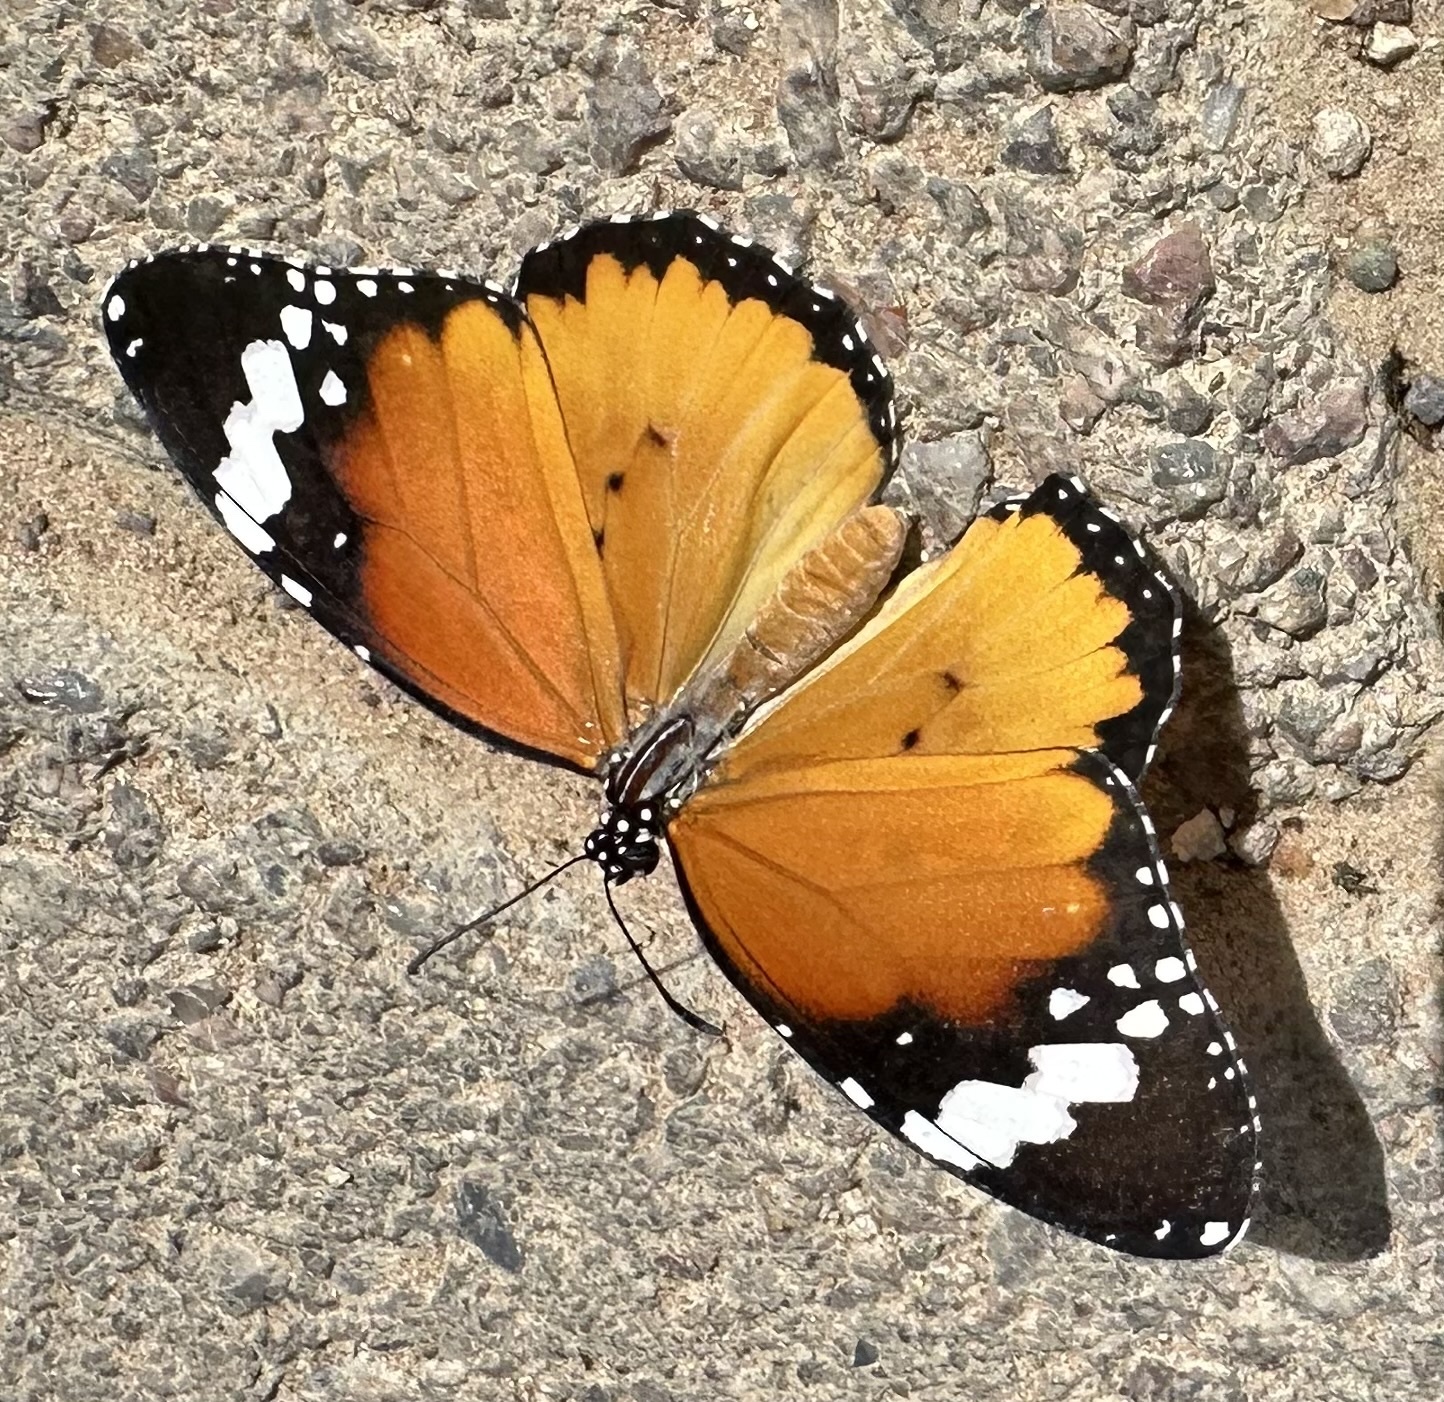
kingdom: Animalia
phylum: Arthropoda
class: Insecta
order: Lepidoptera
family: Nymphalidae
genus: Danaus
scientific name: Danaus chrysippus
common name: Plain tiger
